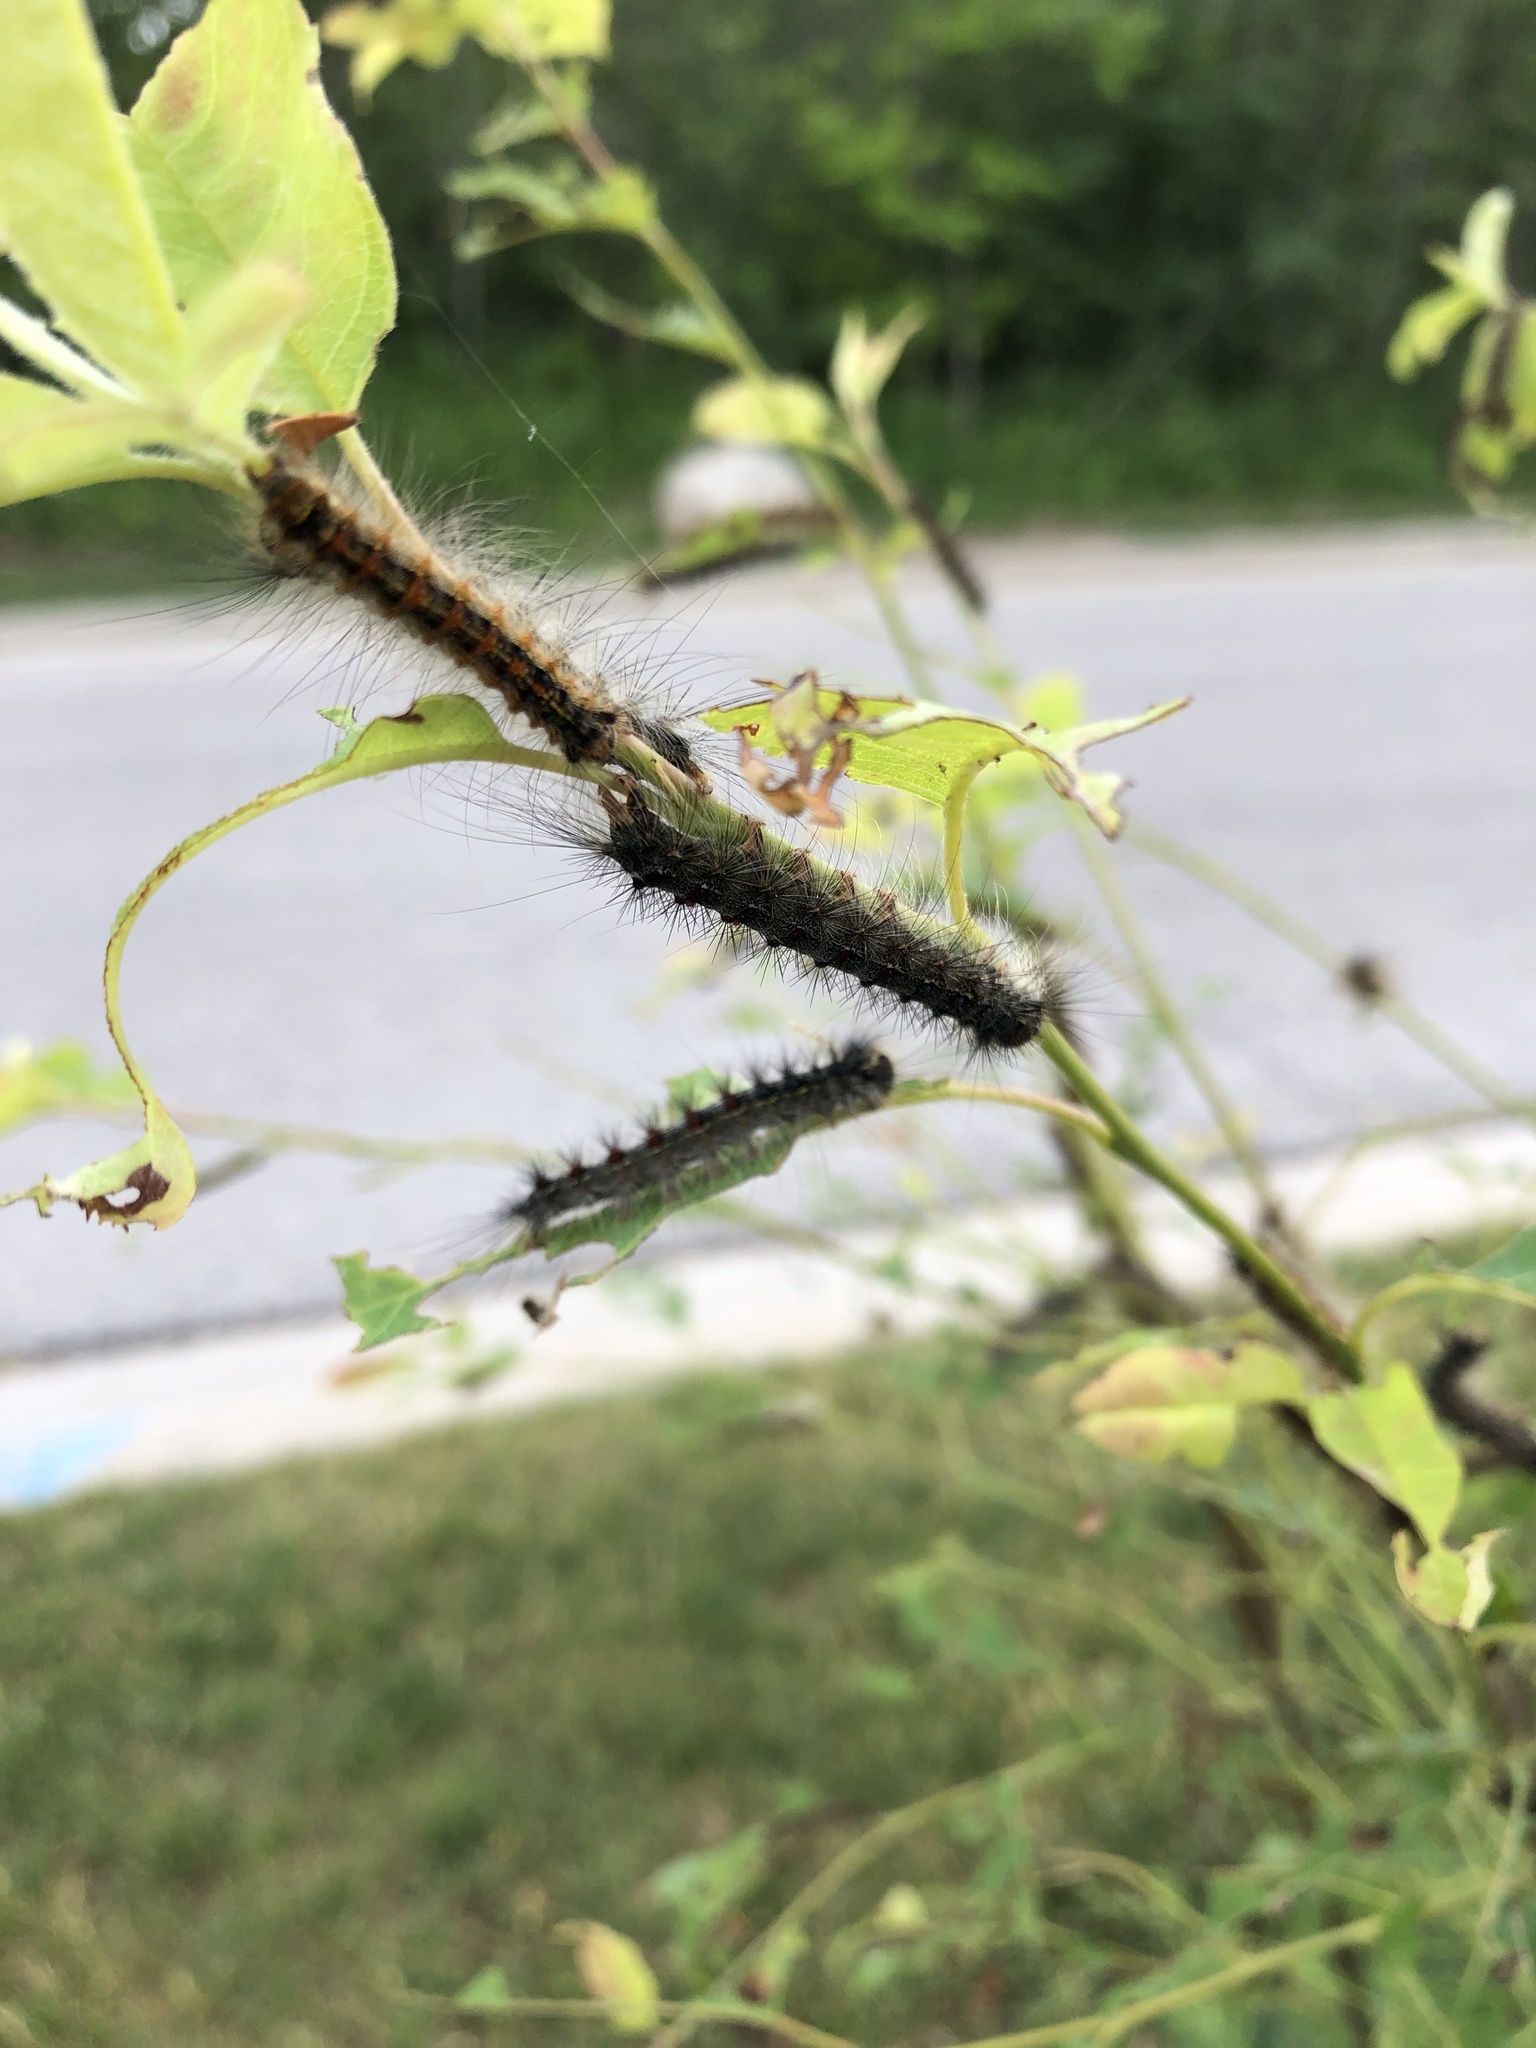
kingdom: Animalia
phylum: Arthropoda
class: Insecta
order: Lepidoptera
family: Erebidae
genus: Lymantria
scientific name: Lymantria dispar
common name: Gypsy moth
